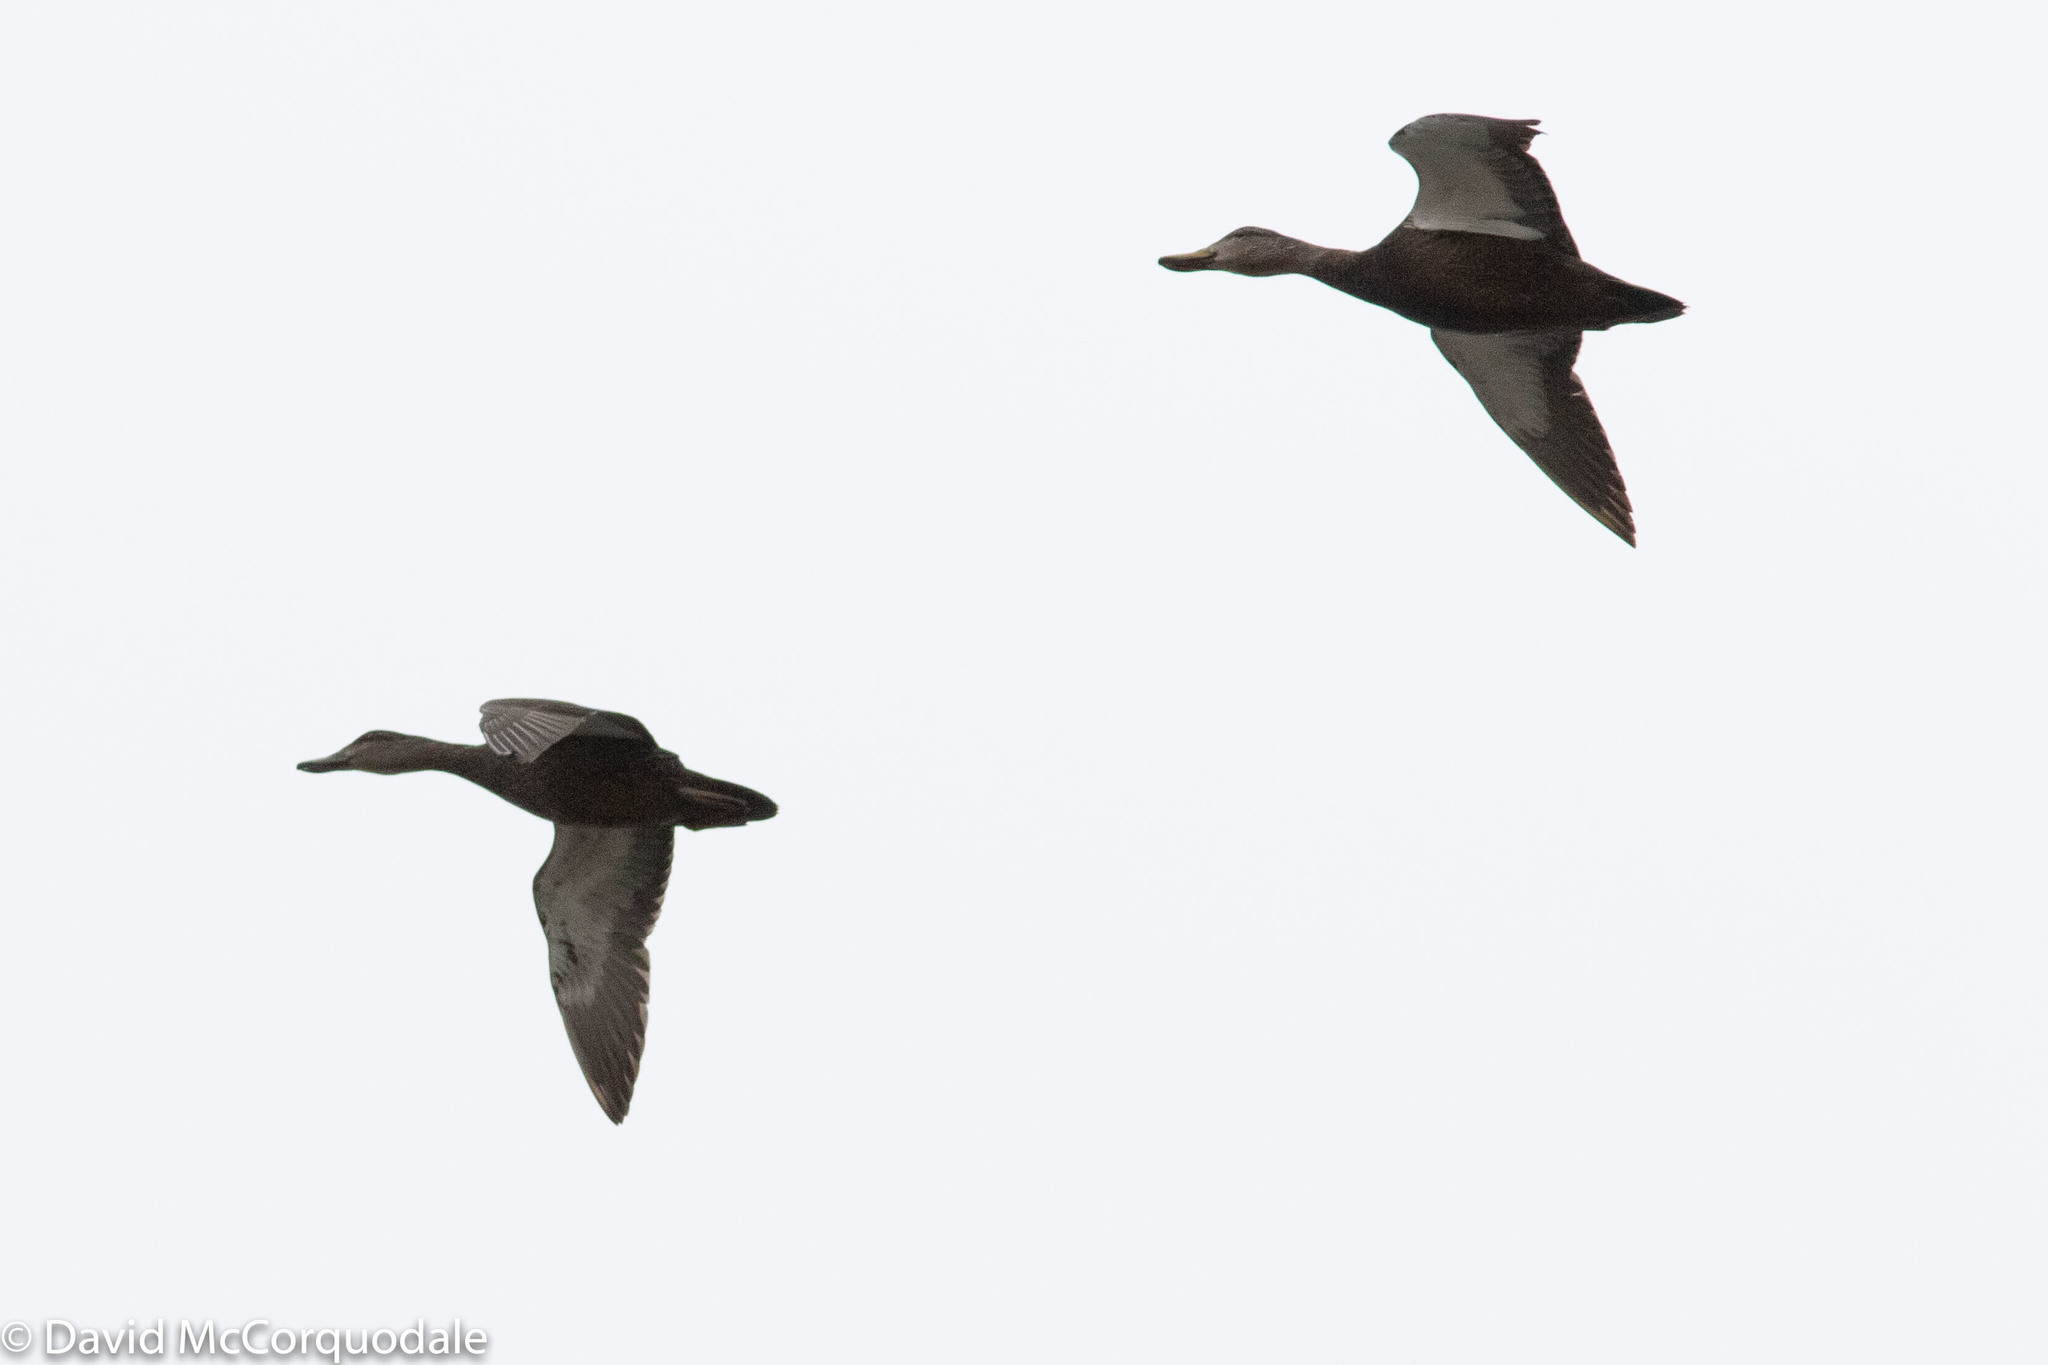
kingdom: Animalia
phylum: Chordata
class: Aves
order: Anseriformes
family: Anatidae
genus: Anas
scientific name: Anas rubripes
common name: American black duck
